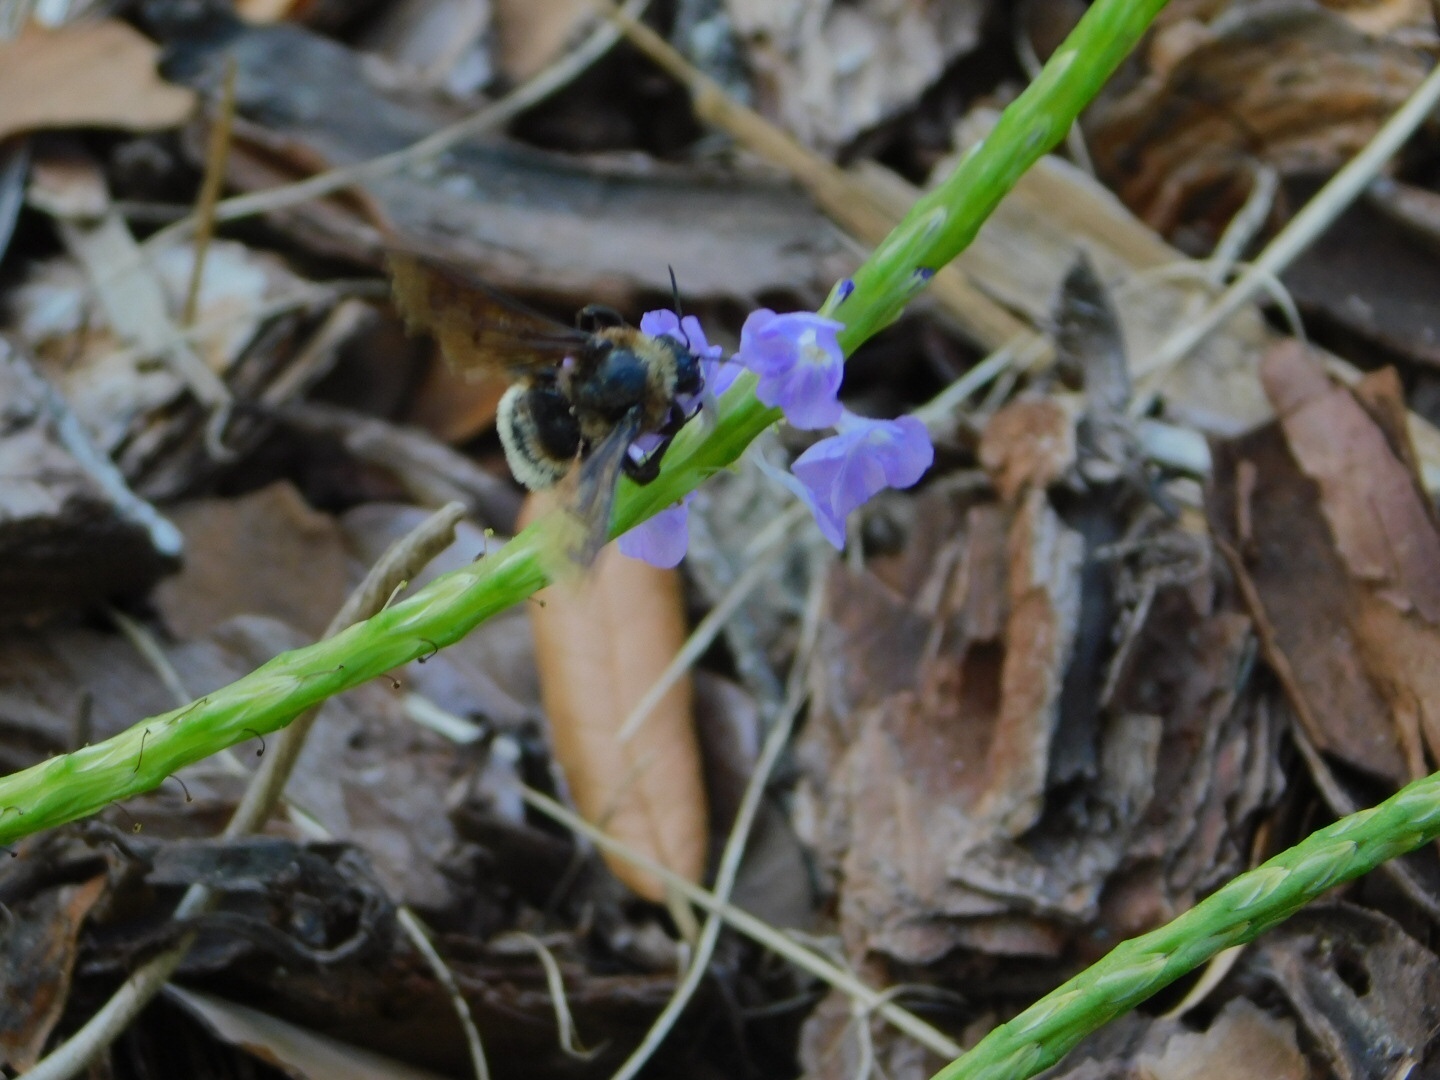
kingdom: Animalia
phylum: Arthropoda
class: Insecta
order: Hymenoptera
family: Apidae
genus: Bombus
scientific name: Bombus pensylvanicus
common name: Bumble bee
